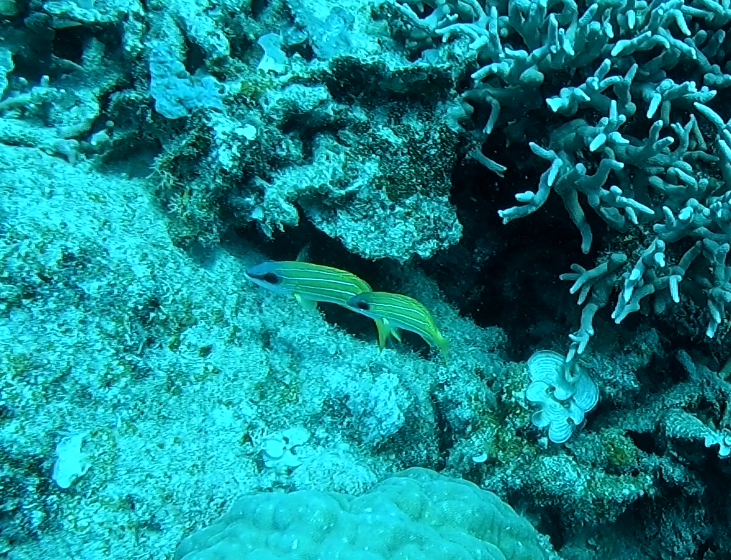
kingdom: Animalia
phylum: Chordata
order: Perciformes
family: Lutjanidae
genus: Lutjanus
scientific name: Lutjanus kasmira
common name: Common bluestripe snapper
